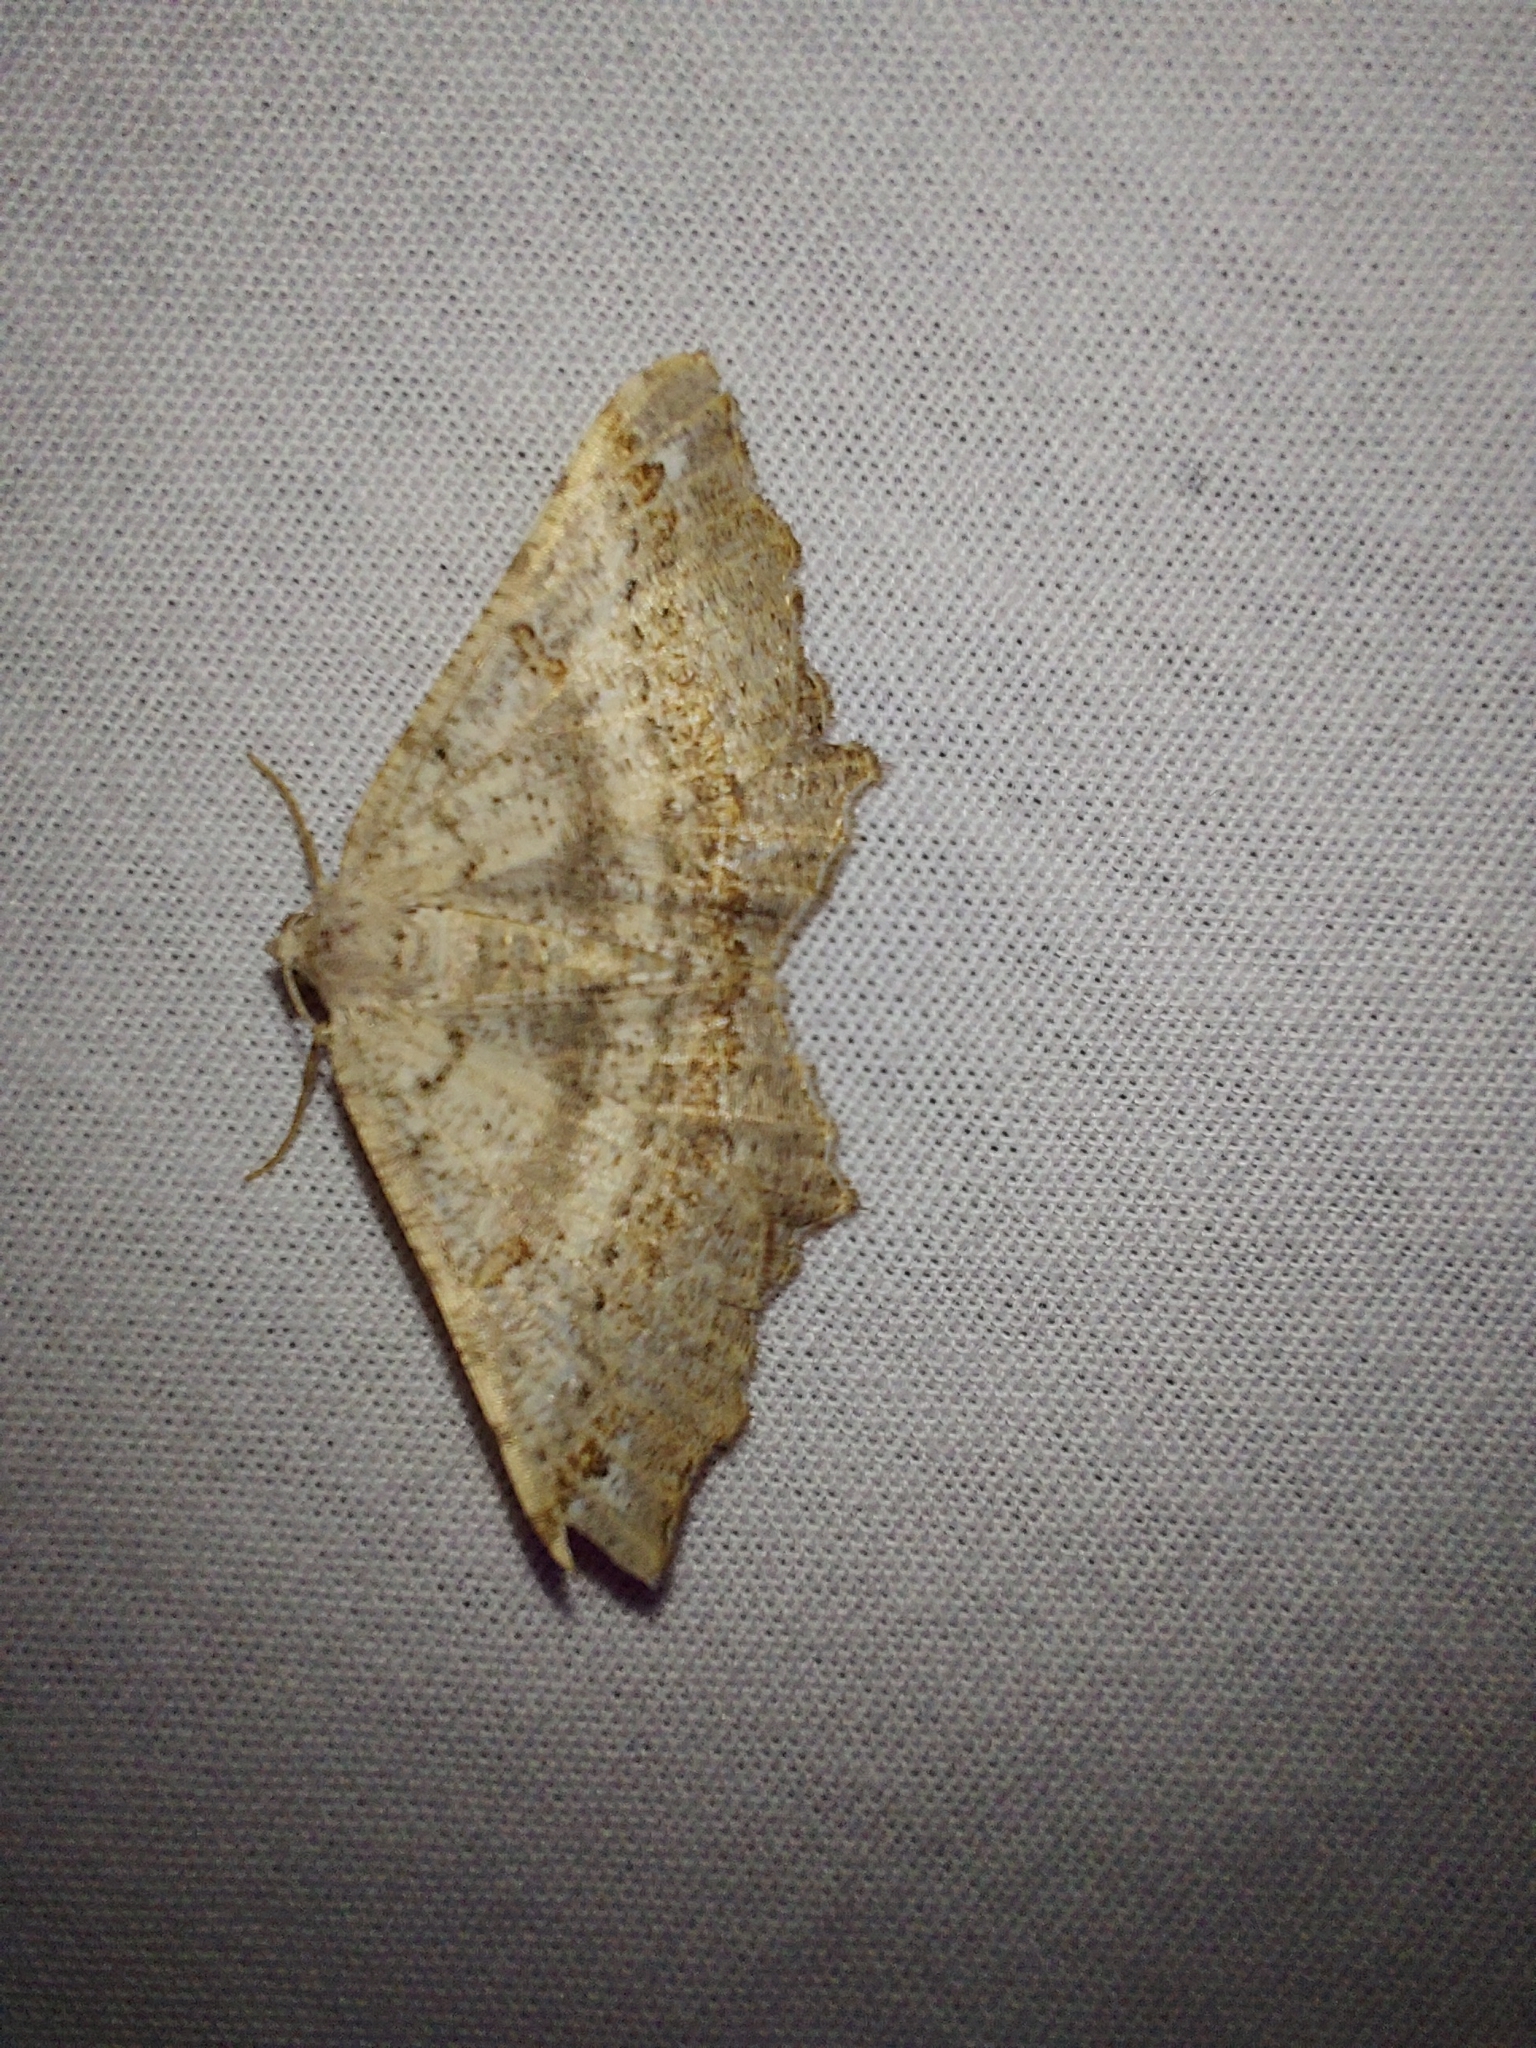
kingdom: Animalia
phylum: Arthropoda
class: Insecta
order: Lepidoptera
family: Geometridae
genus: Dissomorphia
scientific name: Dissomorphia australiaria
